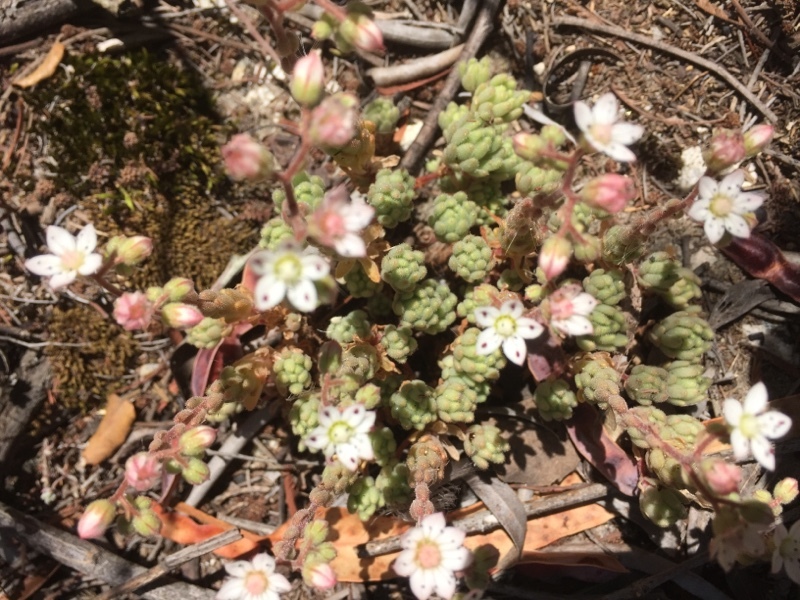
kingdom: Plantae
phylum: Tracheophyta
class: Magnoliopsida
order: Saxifragales
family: Crassulaceae
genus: Sedum
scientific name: Sedum hirsutum
